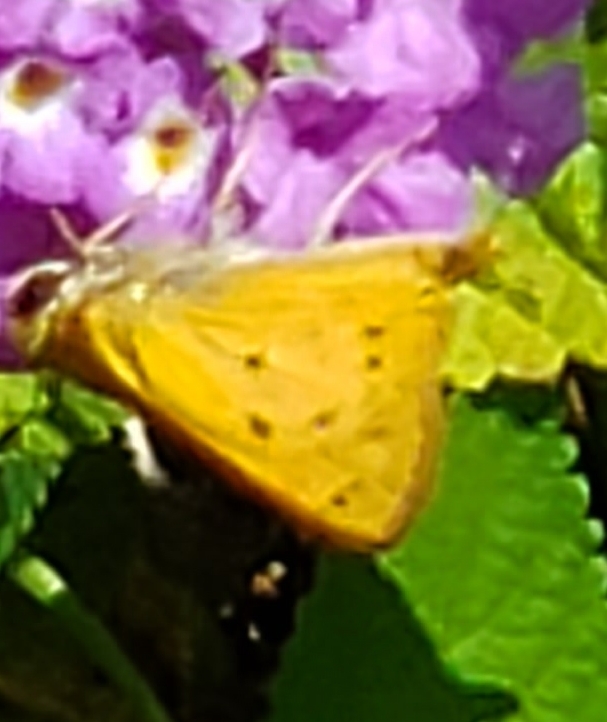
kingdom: Animalia
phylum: Arthropoda
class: Insecta
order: Lepidoptera
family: Hesperiidae
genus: Hylephila
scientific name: Hylephila phyleus
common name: Fiery skipper
